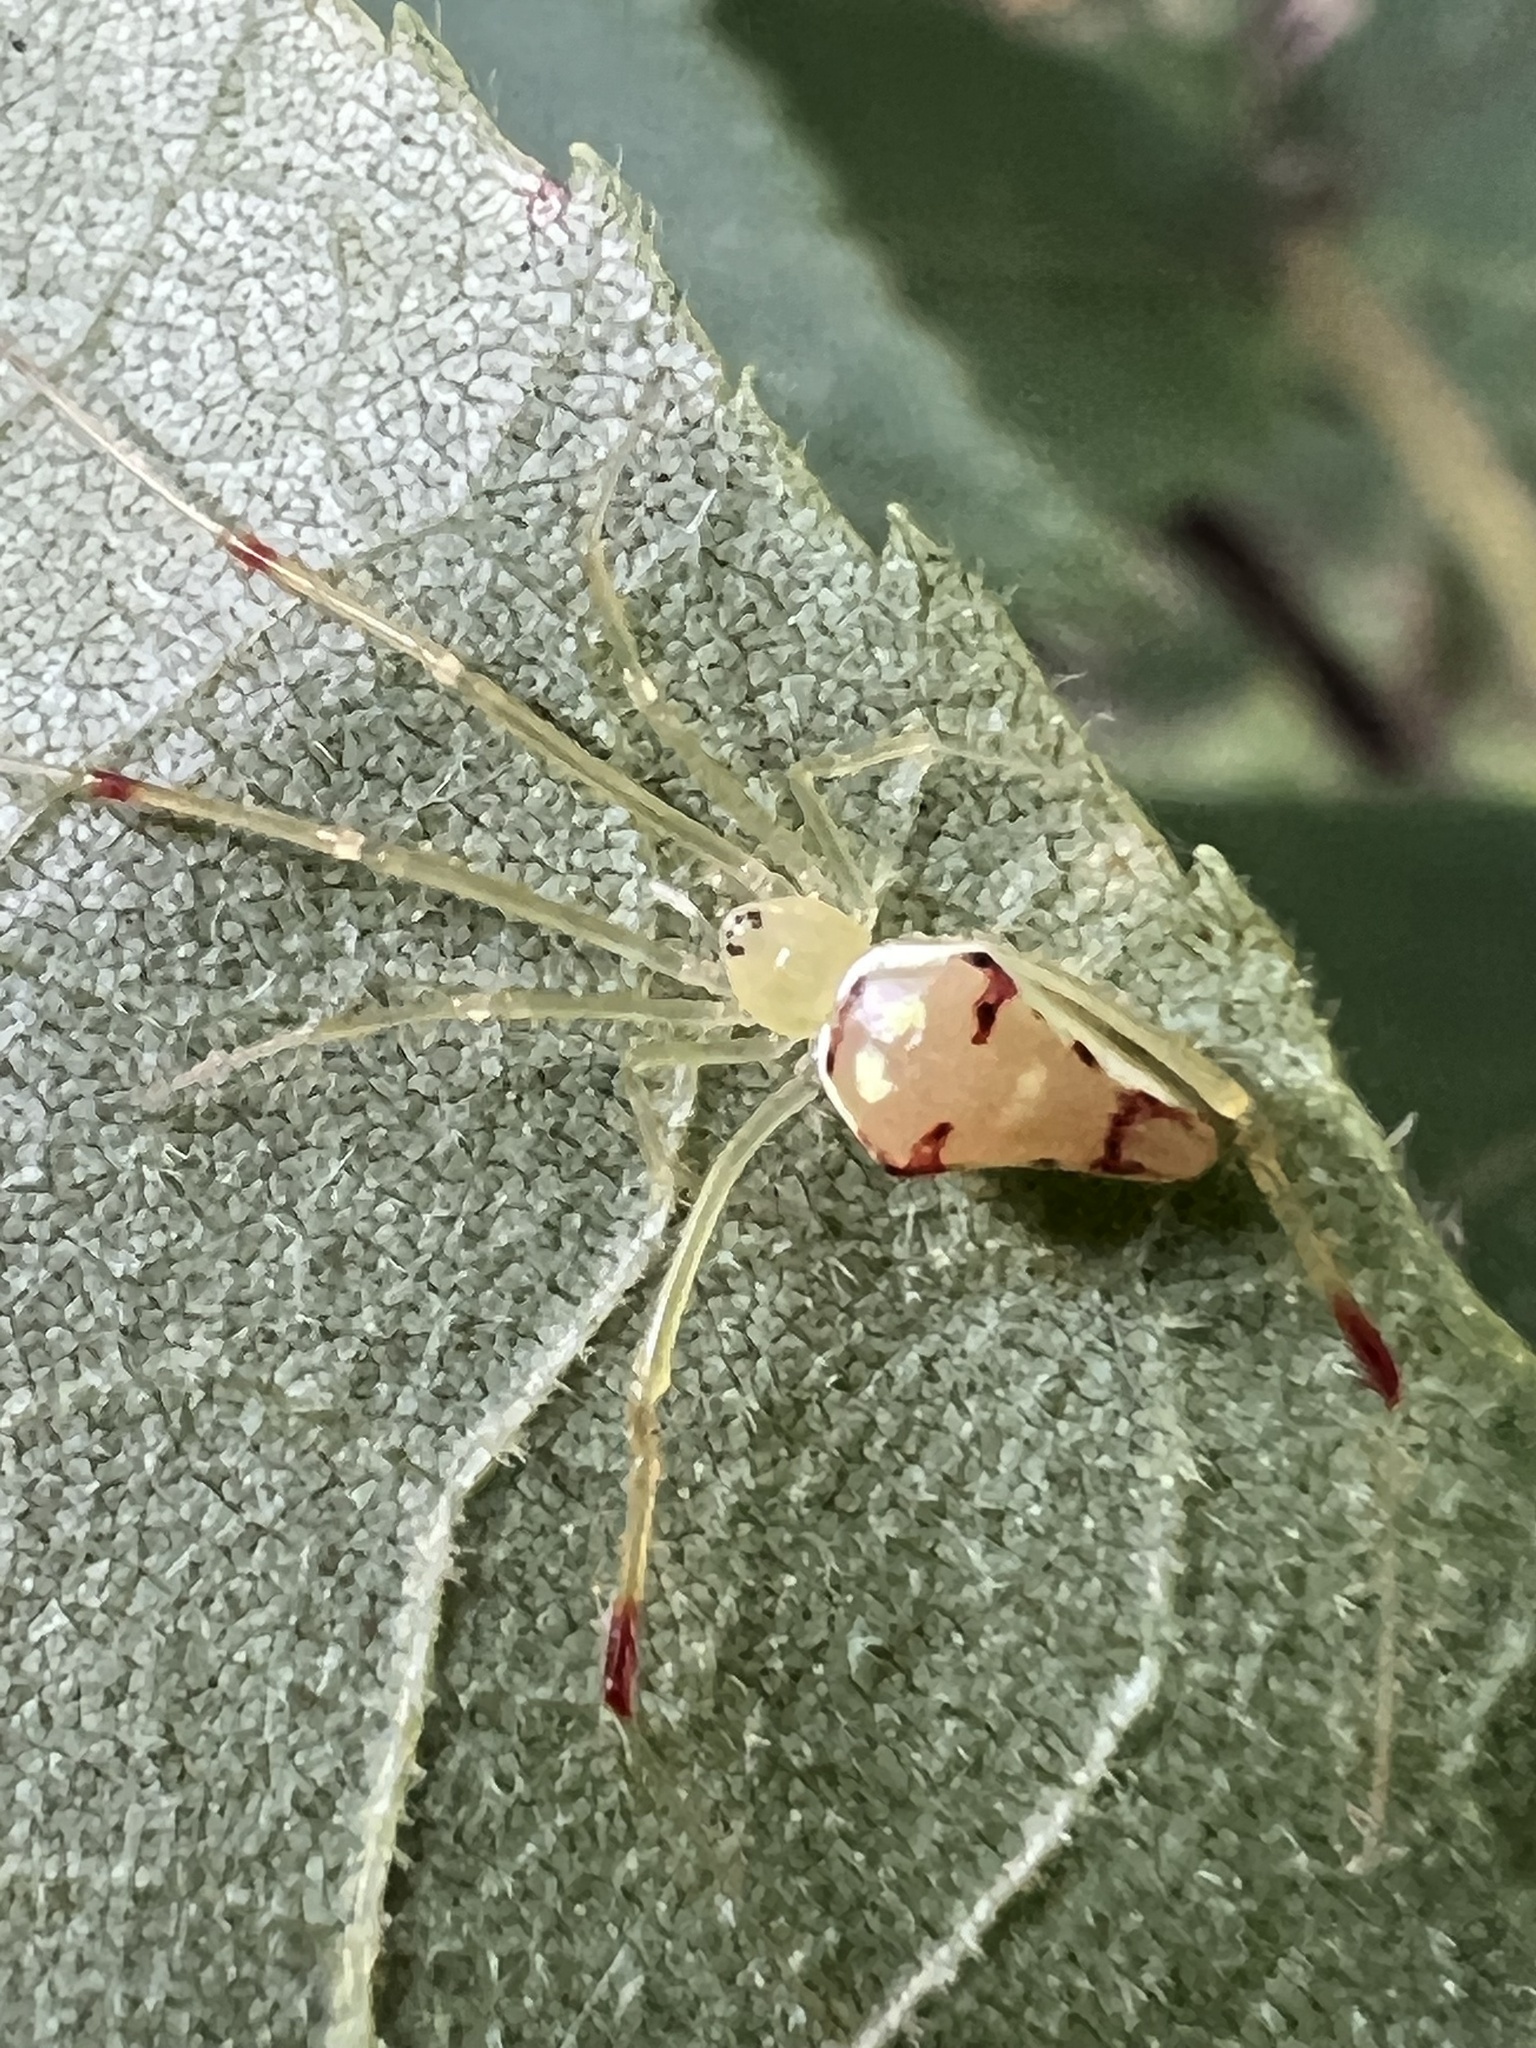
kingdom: Animalia
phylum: Arthropoda
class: Arachnida
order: Araneae
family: Theridiidae
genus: Spintharus
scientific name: Spintharus flavidus
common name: Cobweb spiders
